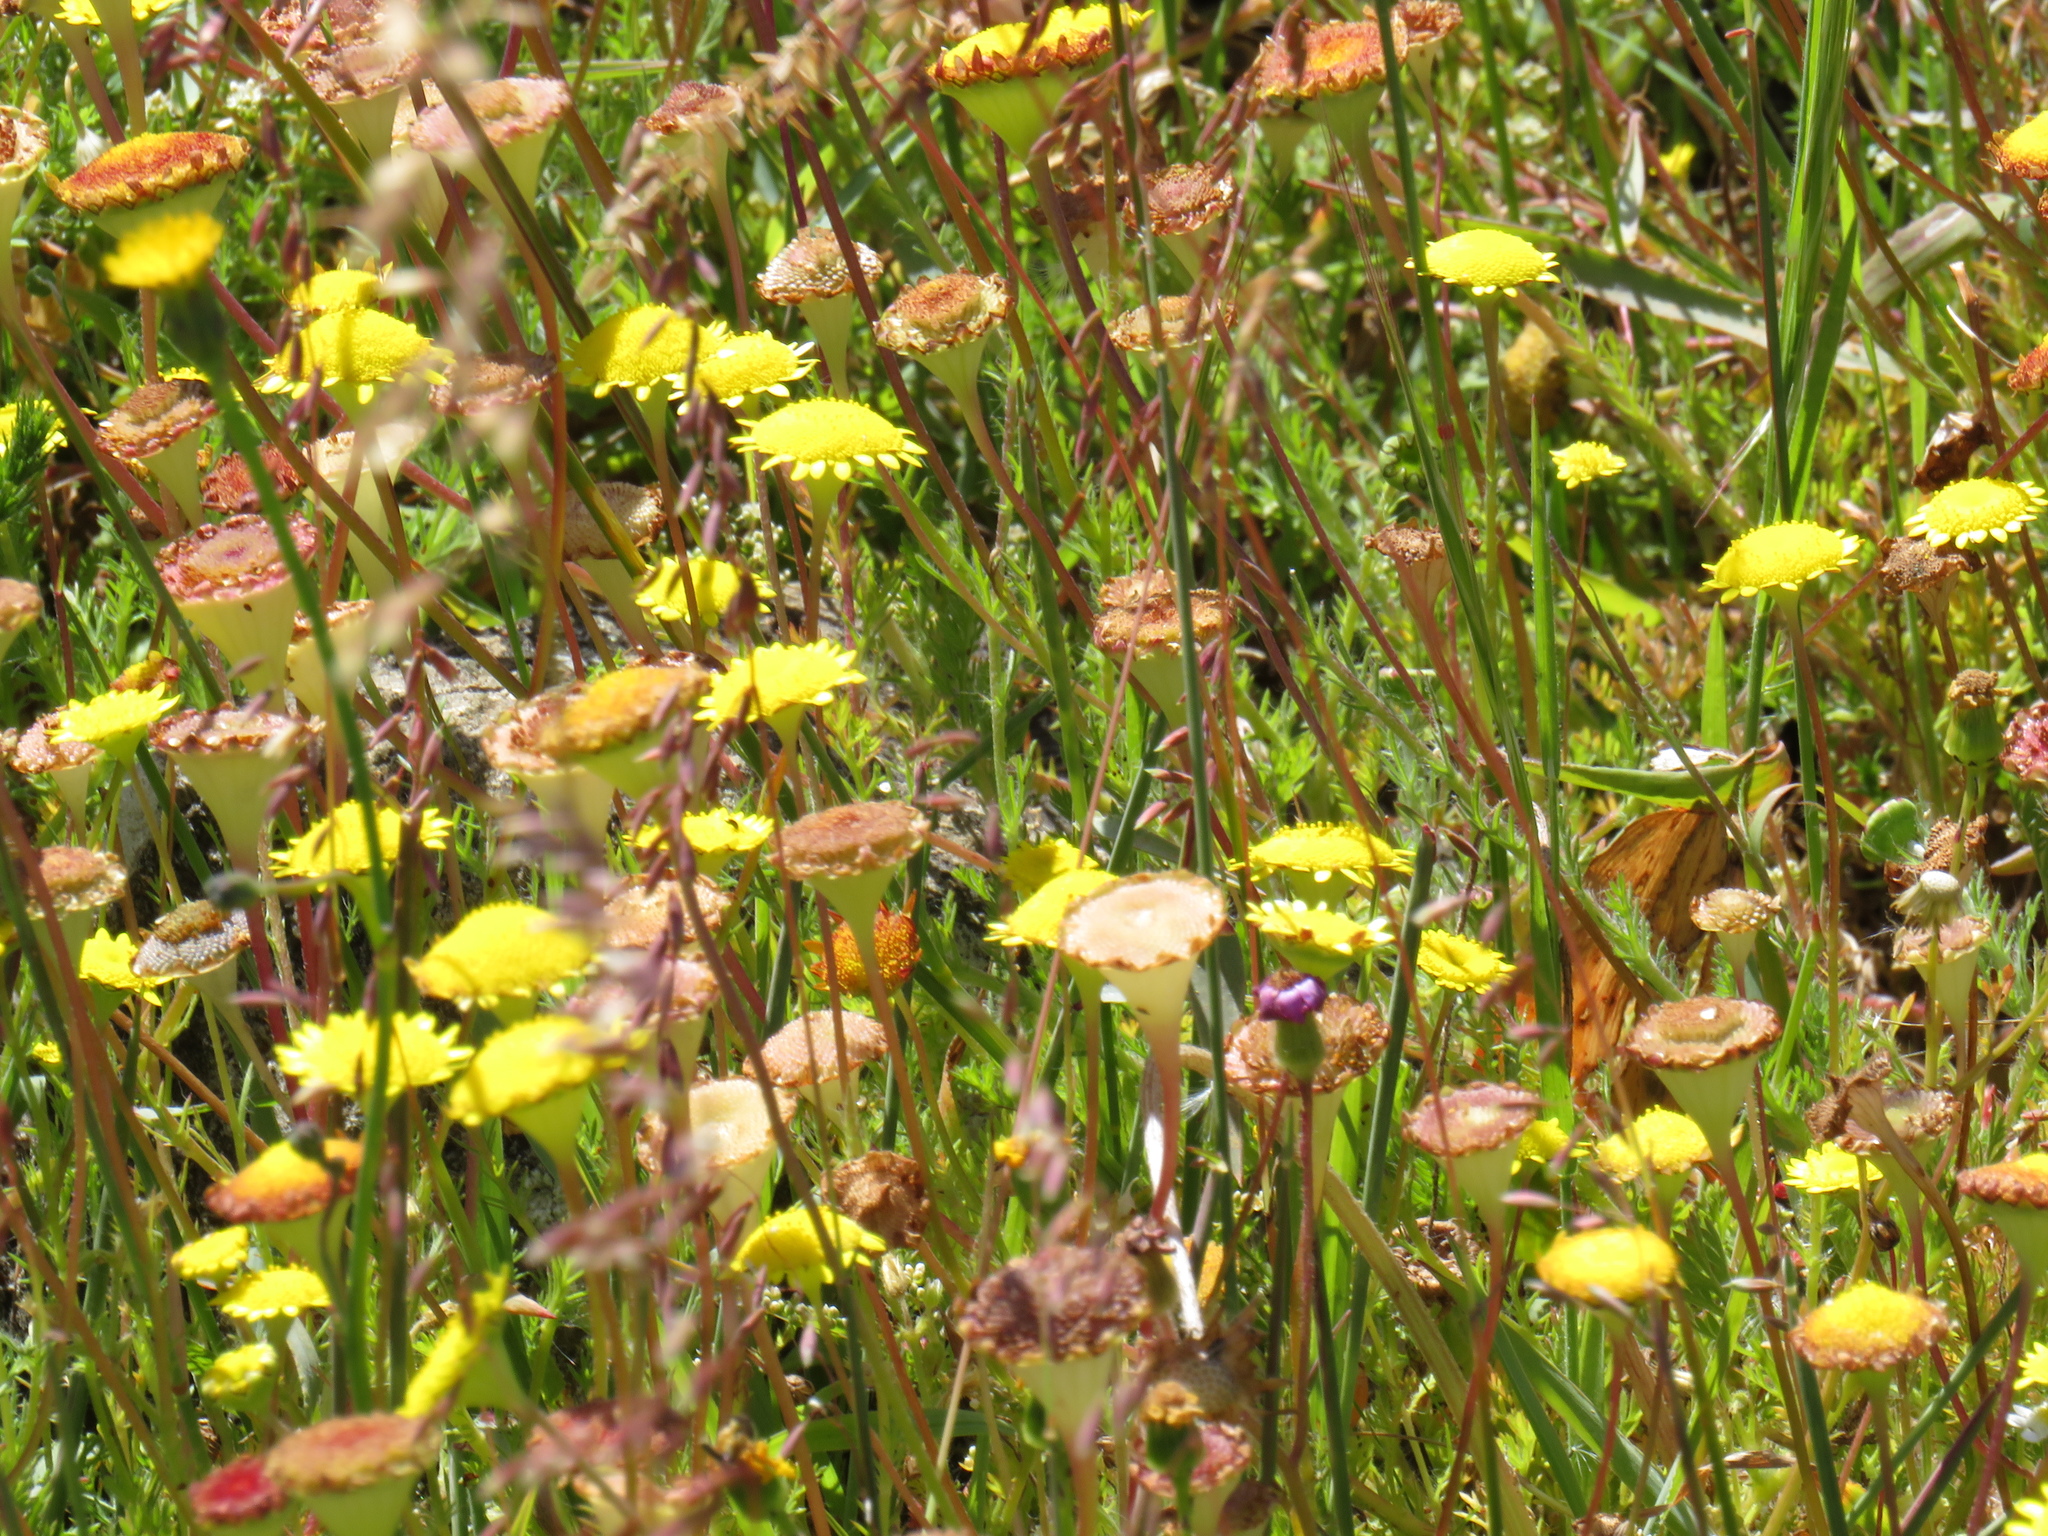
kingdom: Plantae
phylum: Tracheophyta
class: Magnoliopsida
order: Asterales
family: Asteraceae
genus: Cotula
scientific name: Cotula pruinosa
